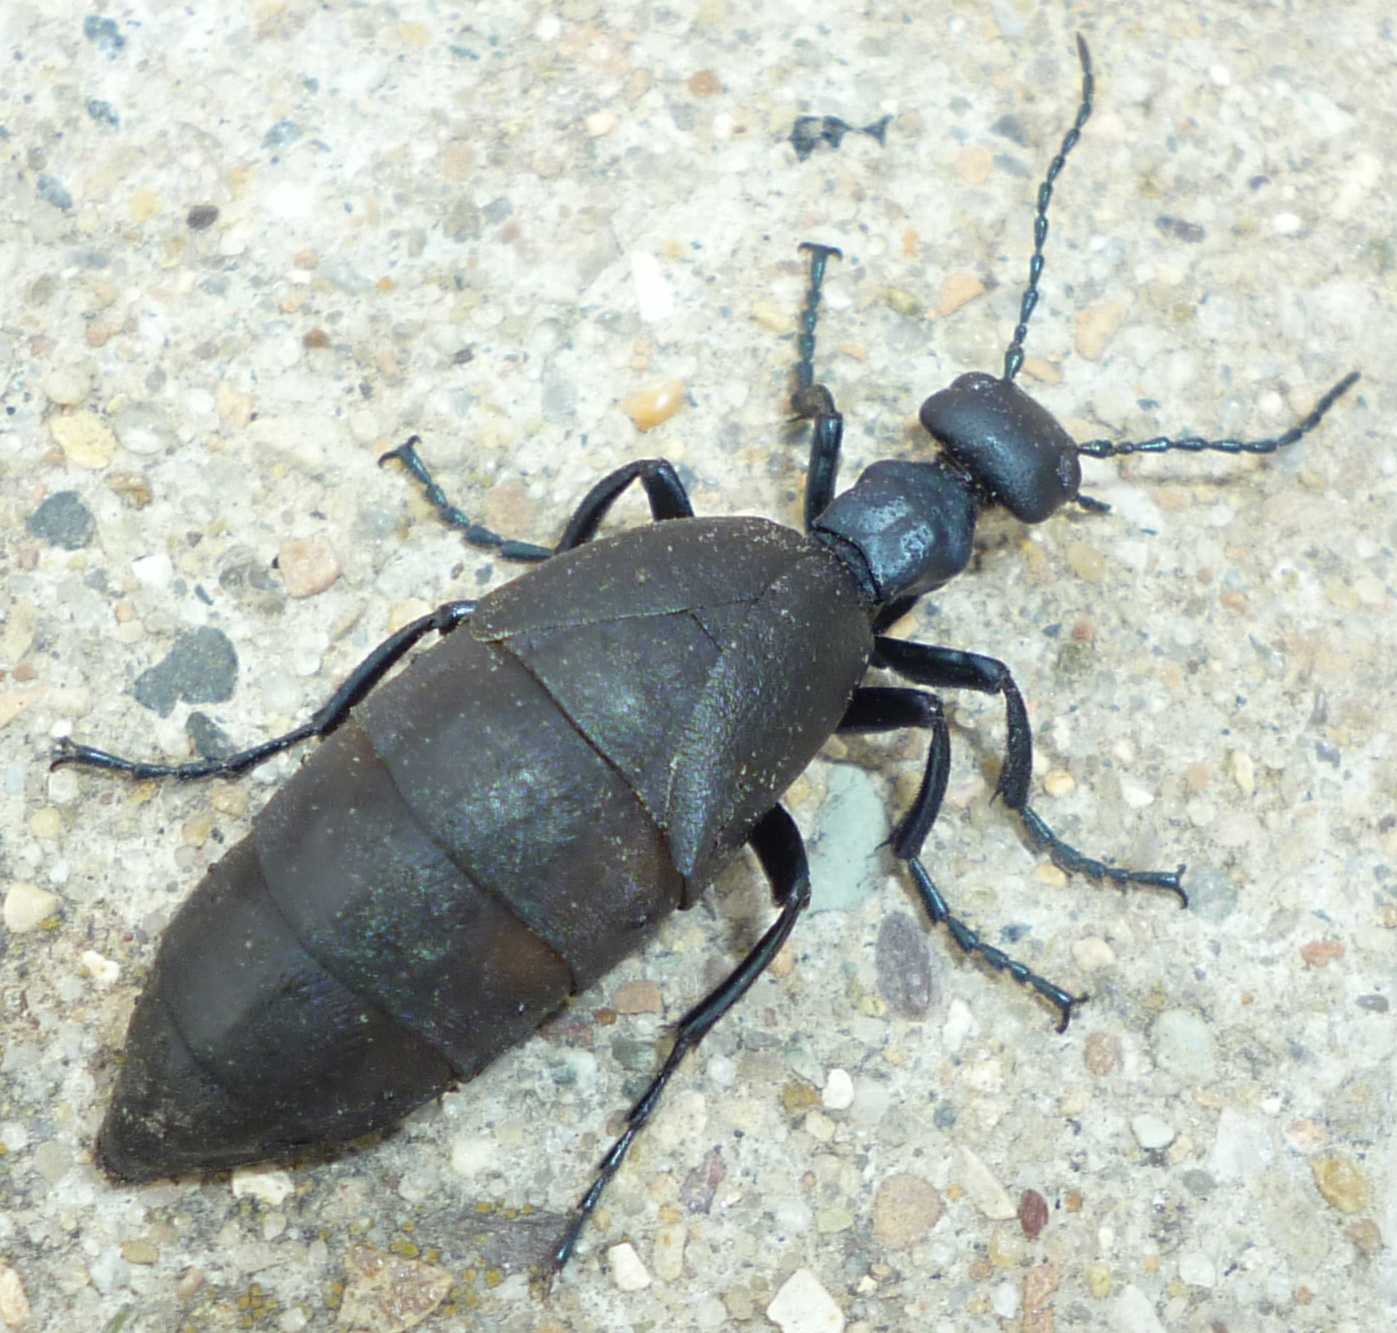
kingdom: Animalia
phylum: Arthropoda
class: Insecta
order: Coleoptera
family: Meloidae
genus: Meloe
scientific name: Meloe americanus
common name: Buttercup oil beetle
